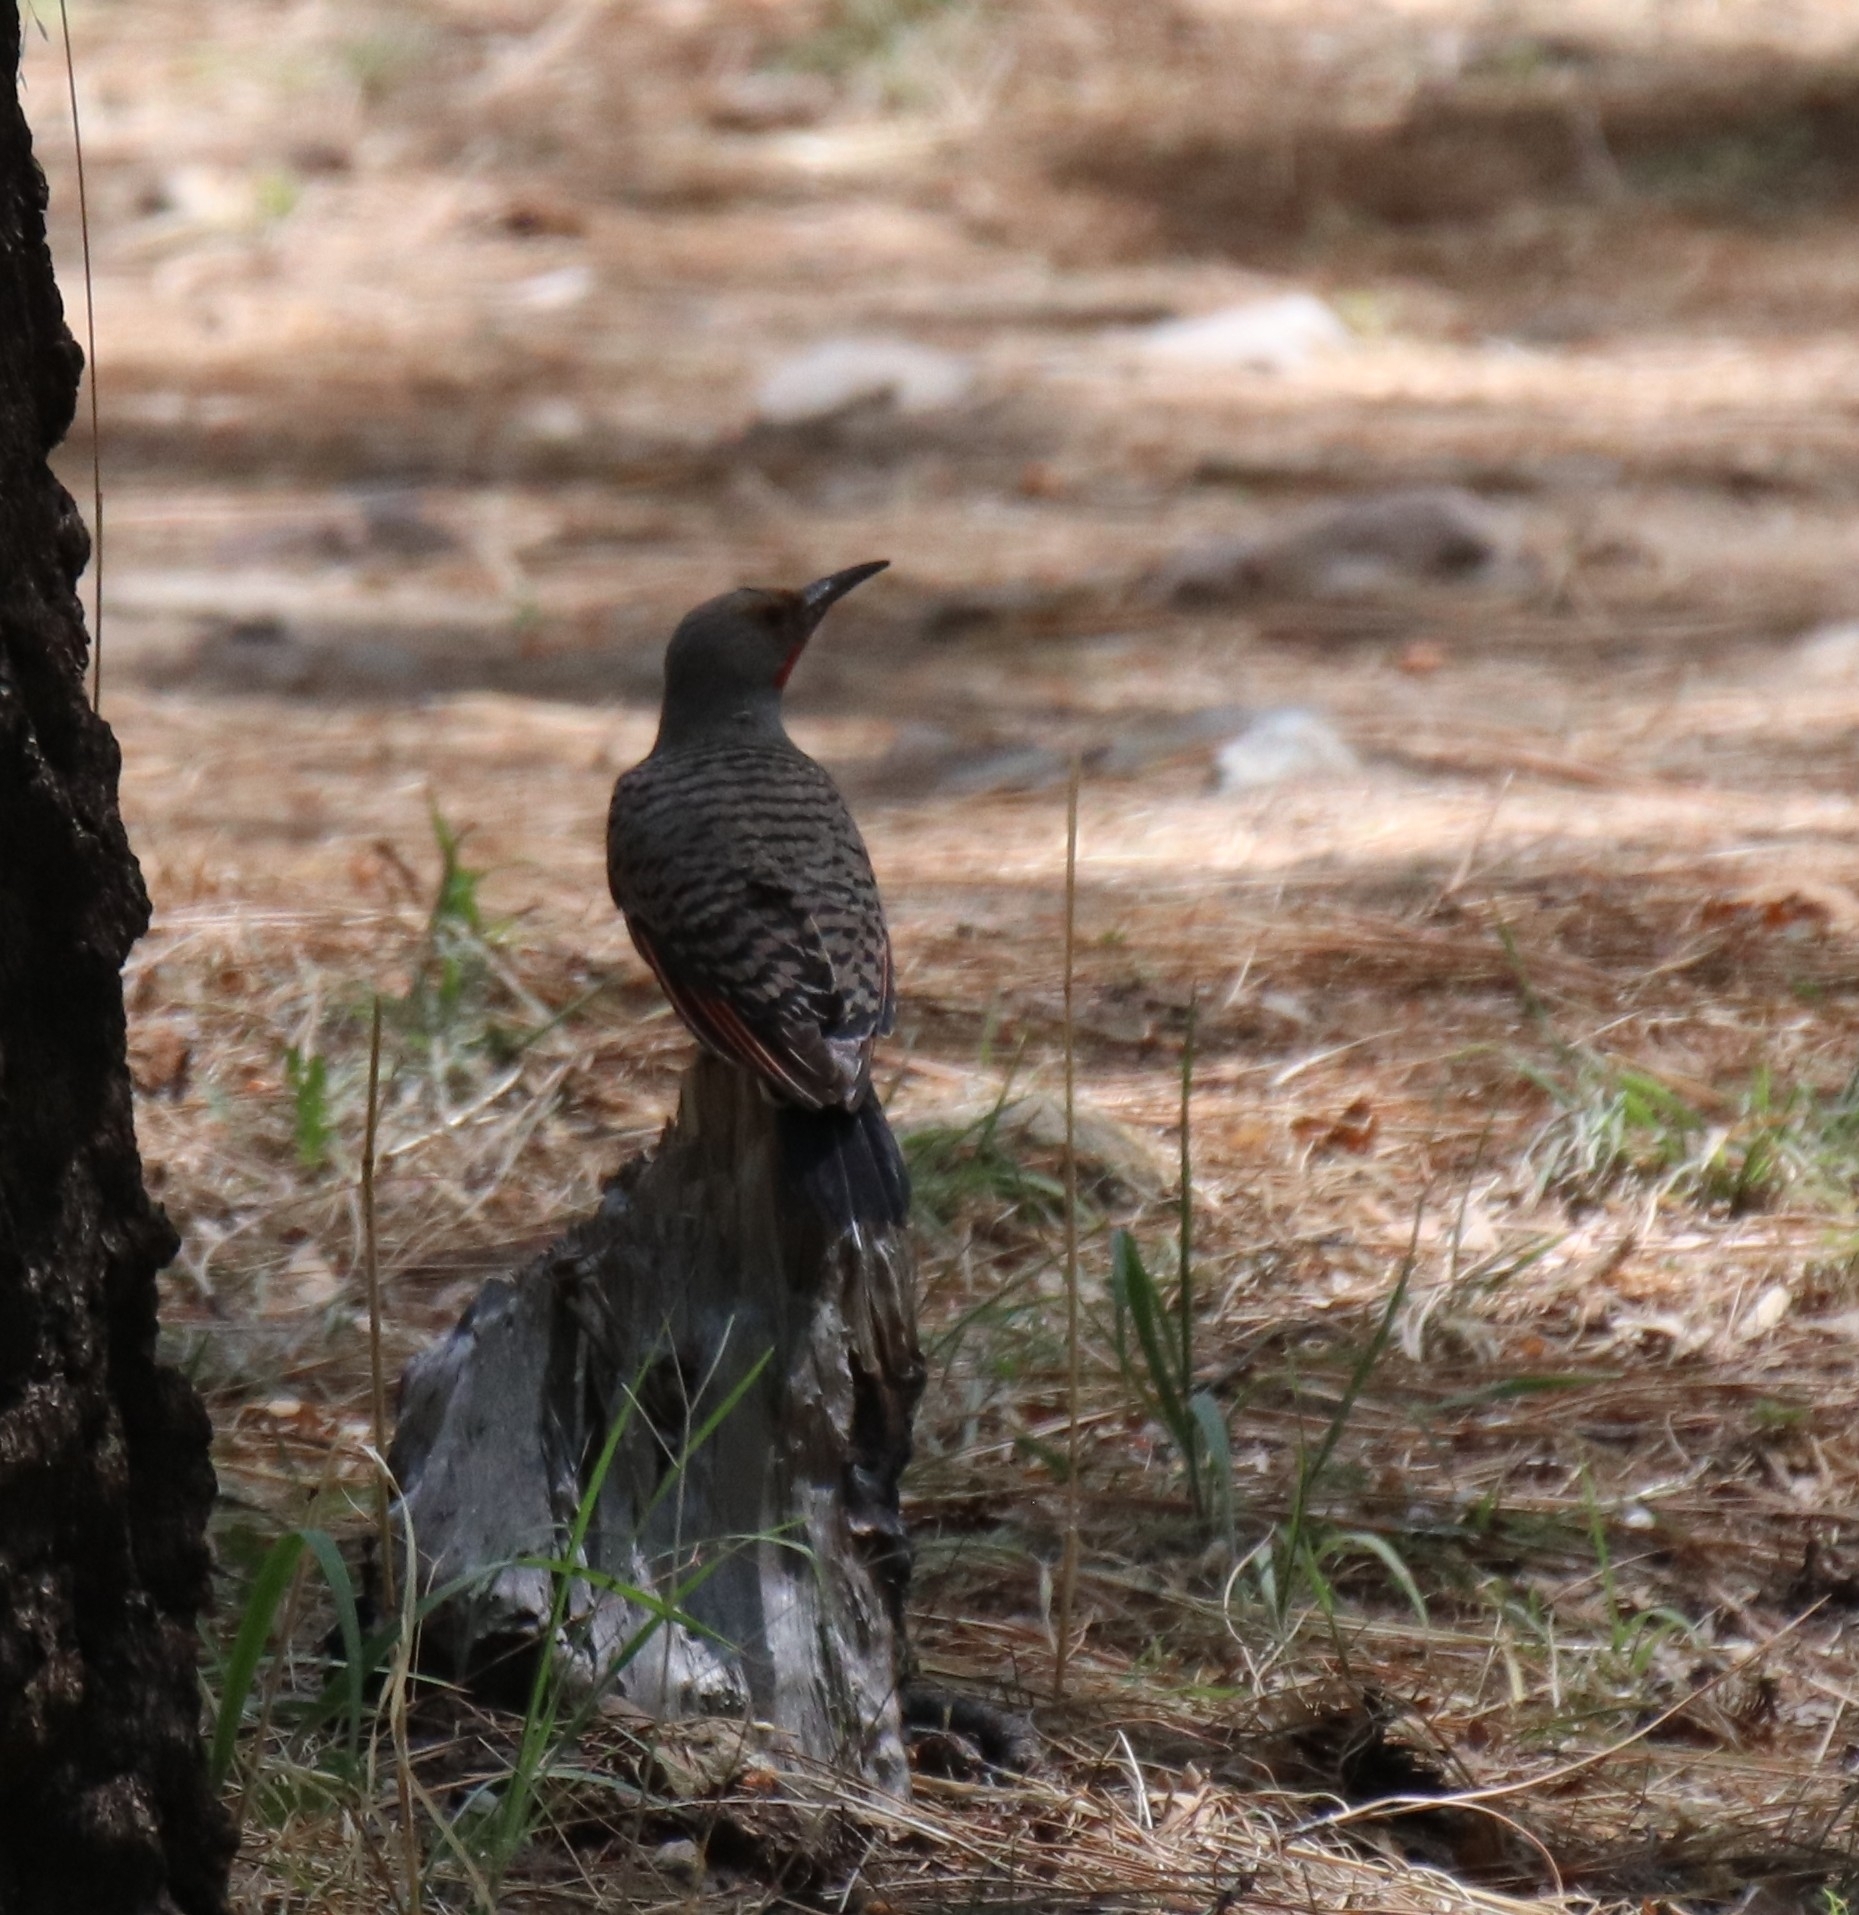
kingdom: Animalia
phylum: Chordata
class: Aves
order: Piciformes
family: Picidae
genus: Colaptes
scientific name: Colaptes auratus
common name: Northern flicker
